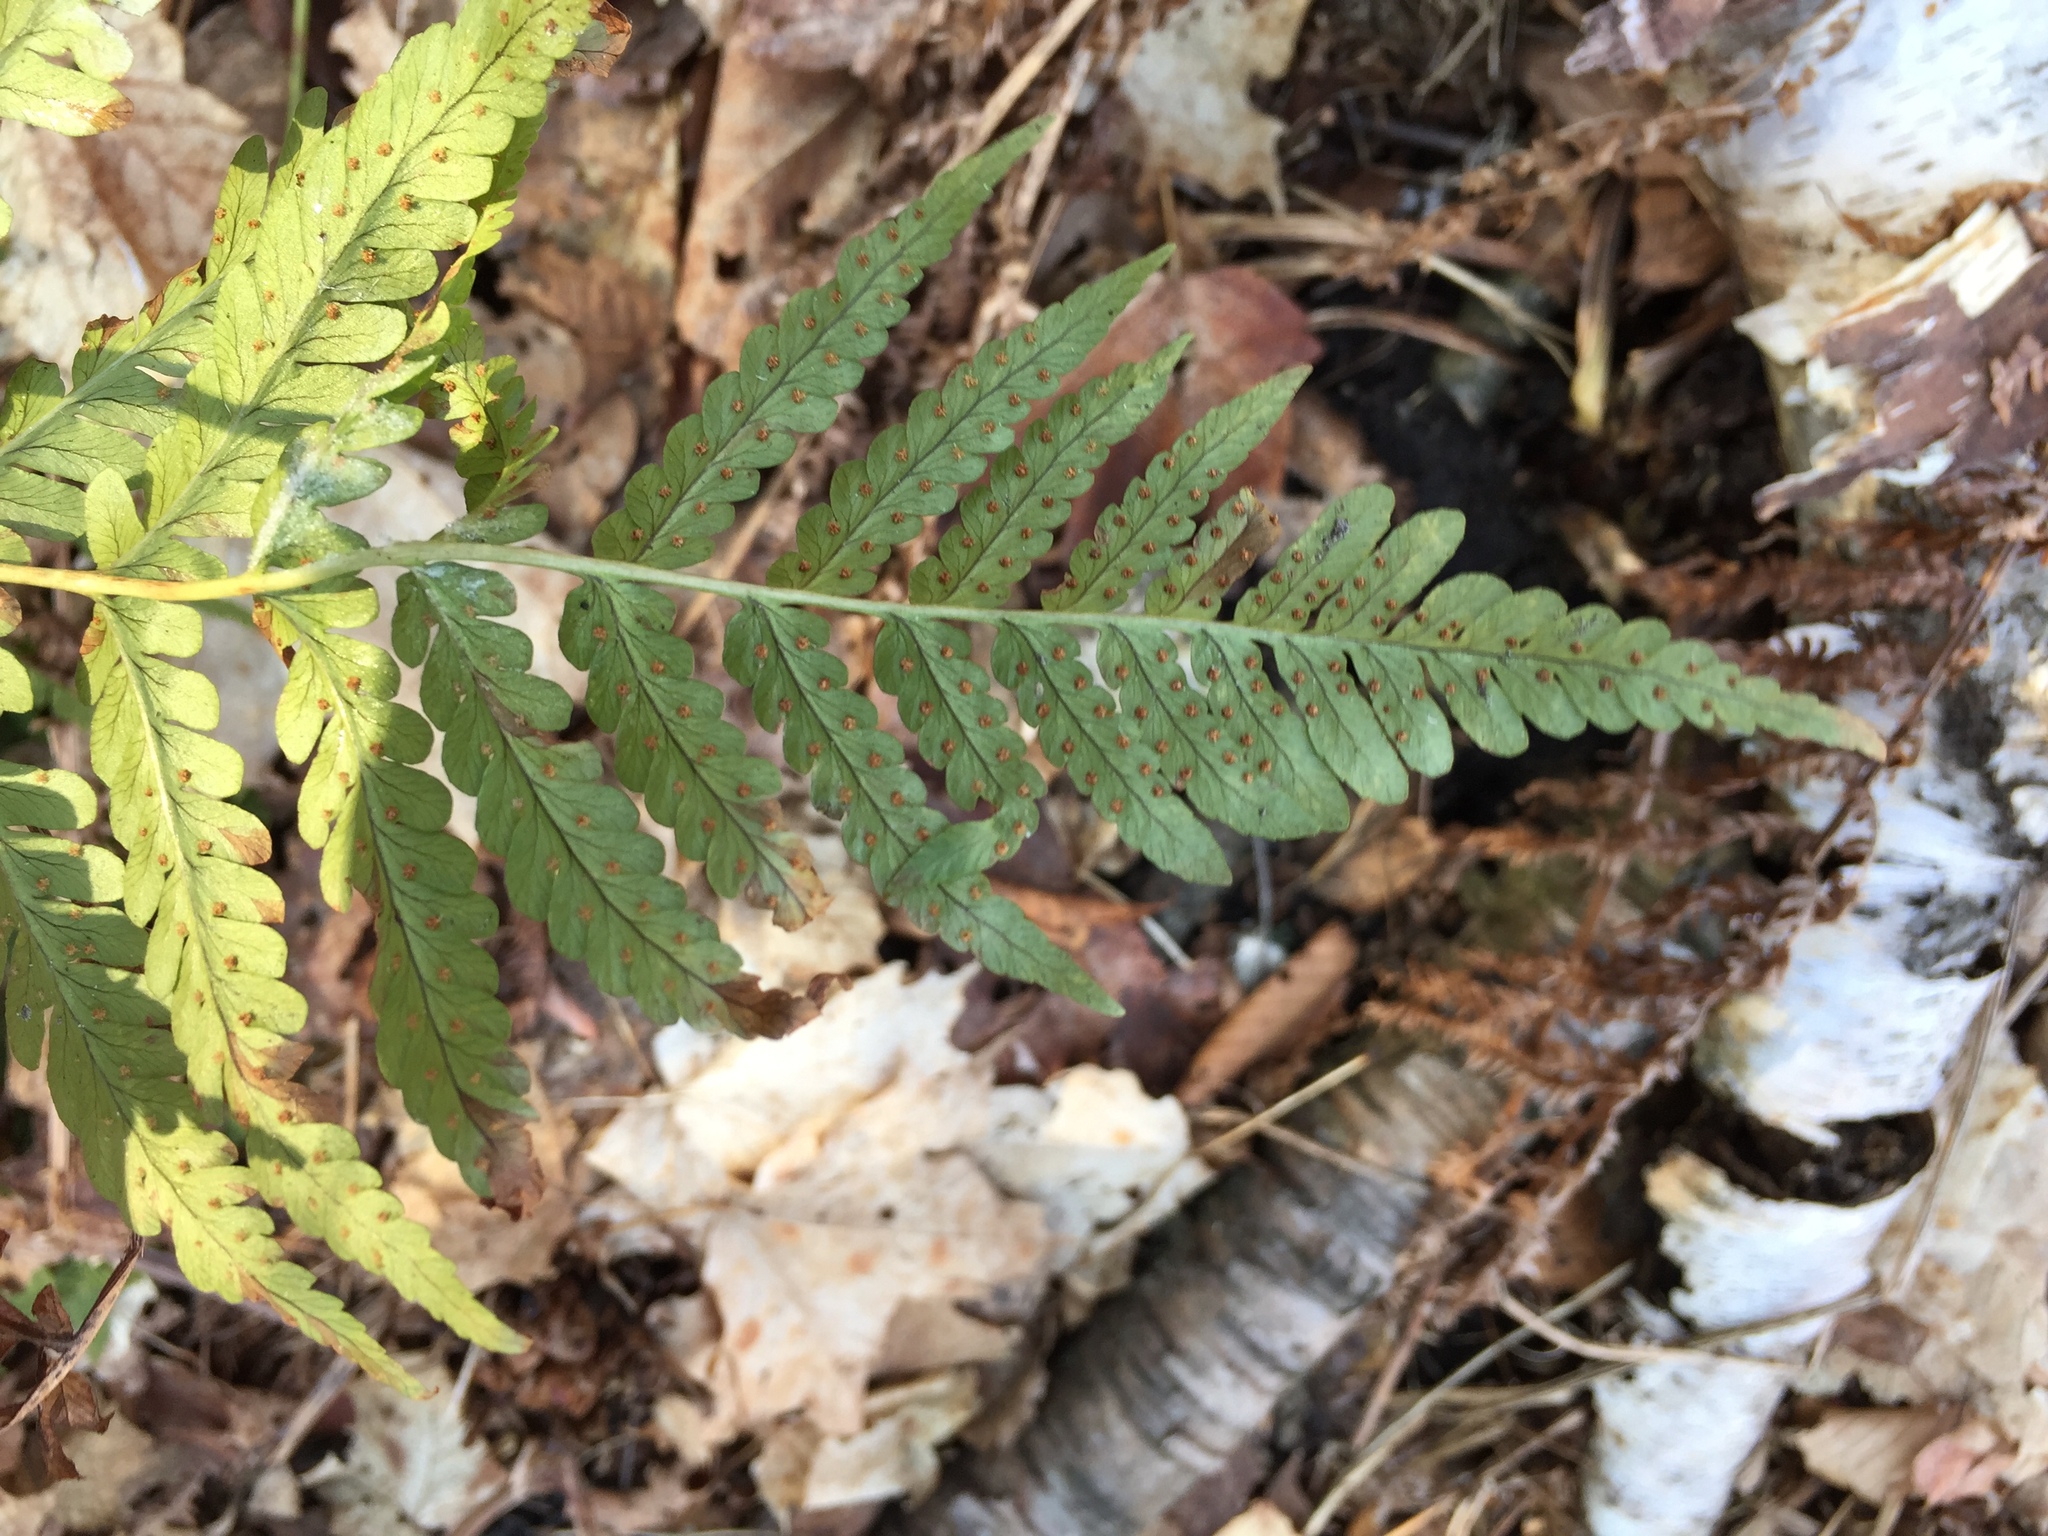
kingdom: Plantae
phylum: Tracheophyta
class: Polypodiopsida
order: Polypodiales
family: Dryopteridaceae
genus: Dryopteris
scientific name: Dryopteris marginalis
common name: Marginal wood fern
